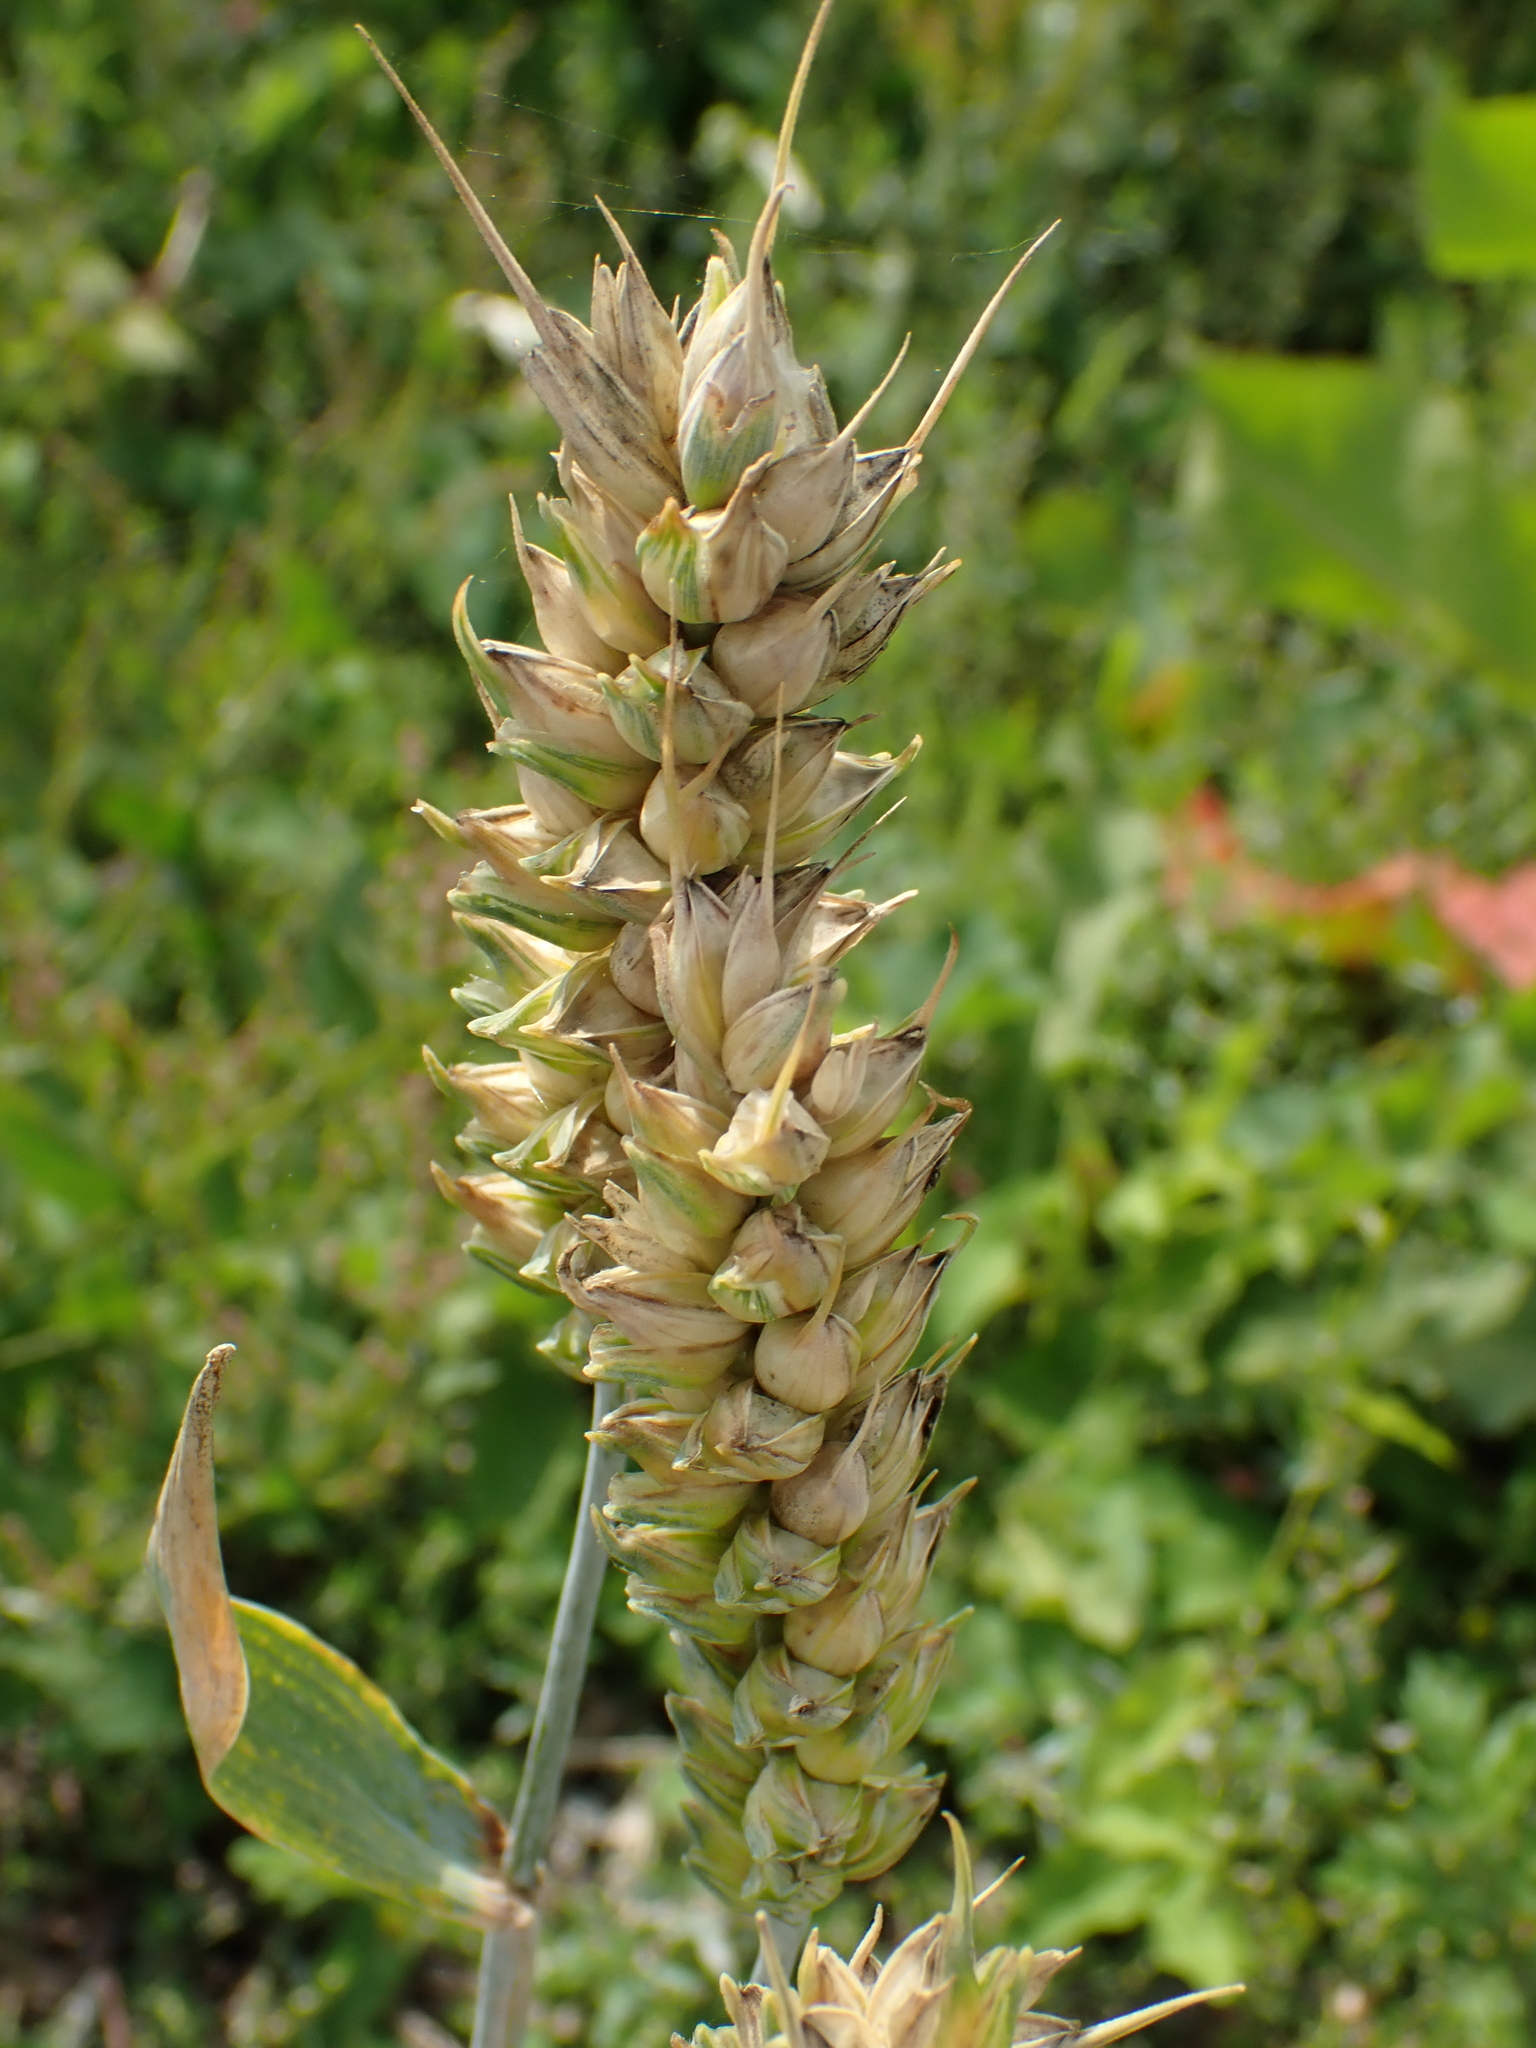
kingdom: Plantae
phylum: Tracheophyta
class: Liliopsida
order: Poales
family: Poaceae
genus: Triticum
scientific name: Triticum aestivum
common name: Common wheat
